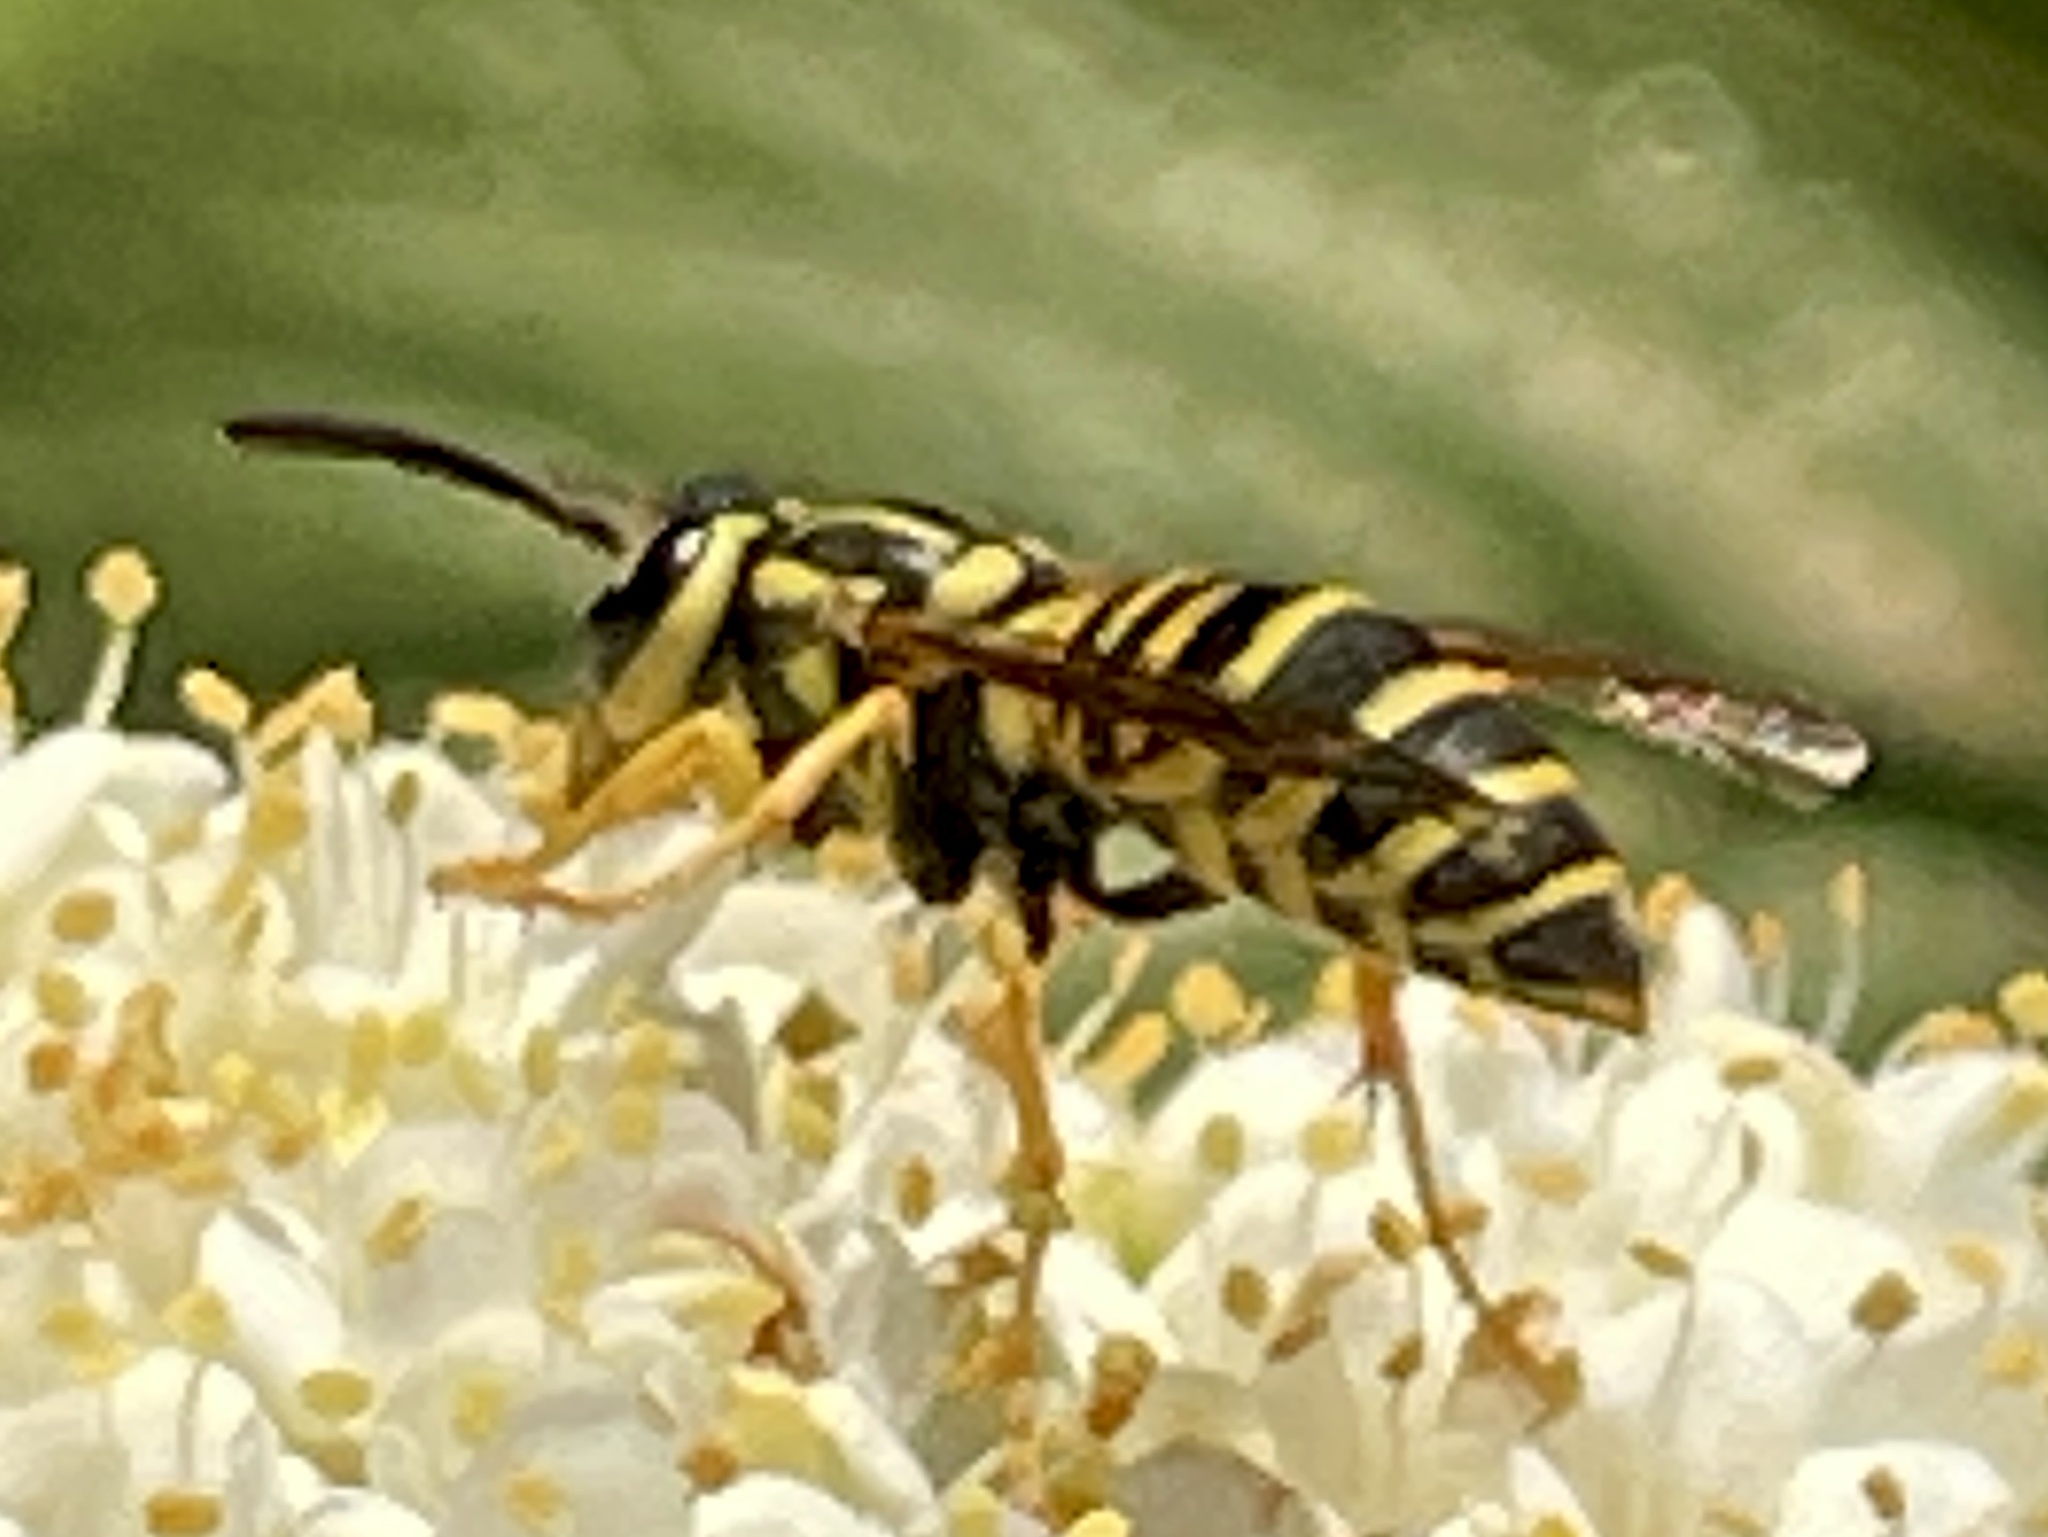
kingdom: Animalia
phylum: Arthropoda
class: Insecta
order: Hymenoptera
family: Vespidae
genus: Vespula
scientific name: Vespula squamosa
